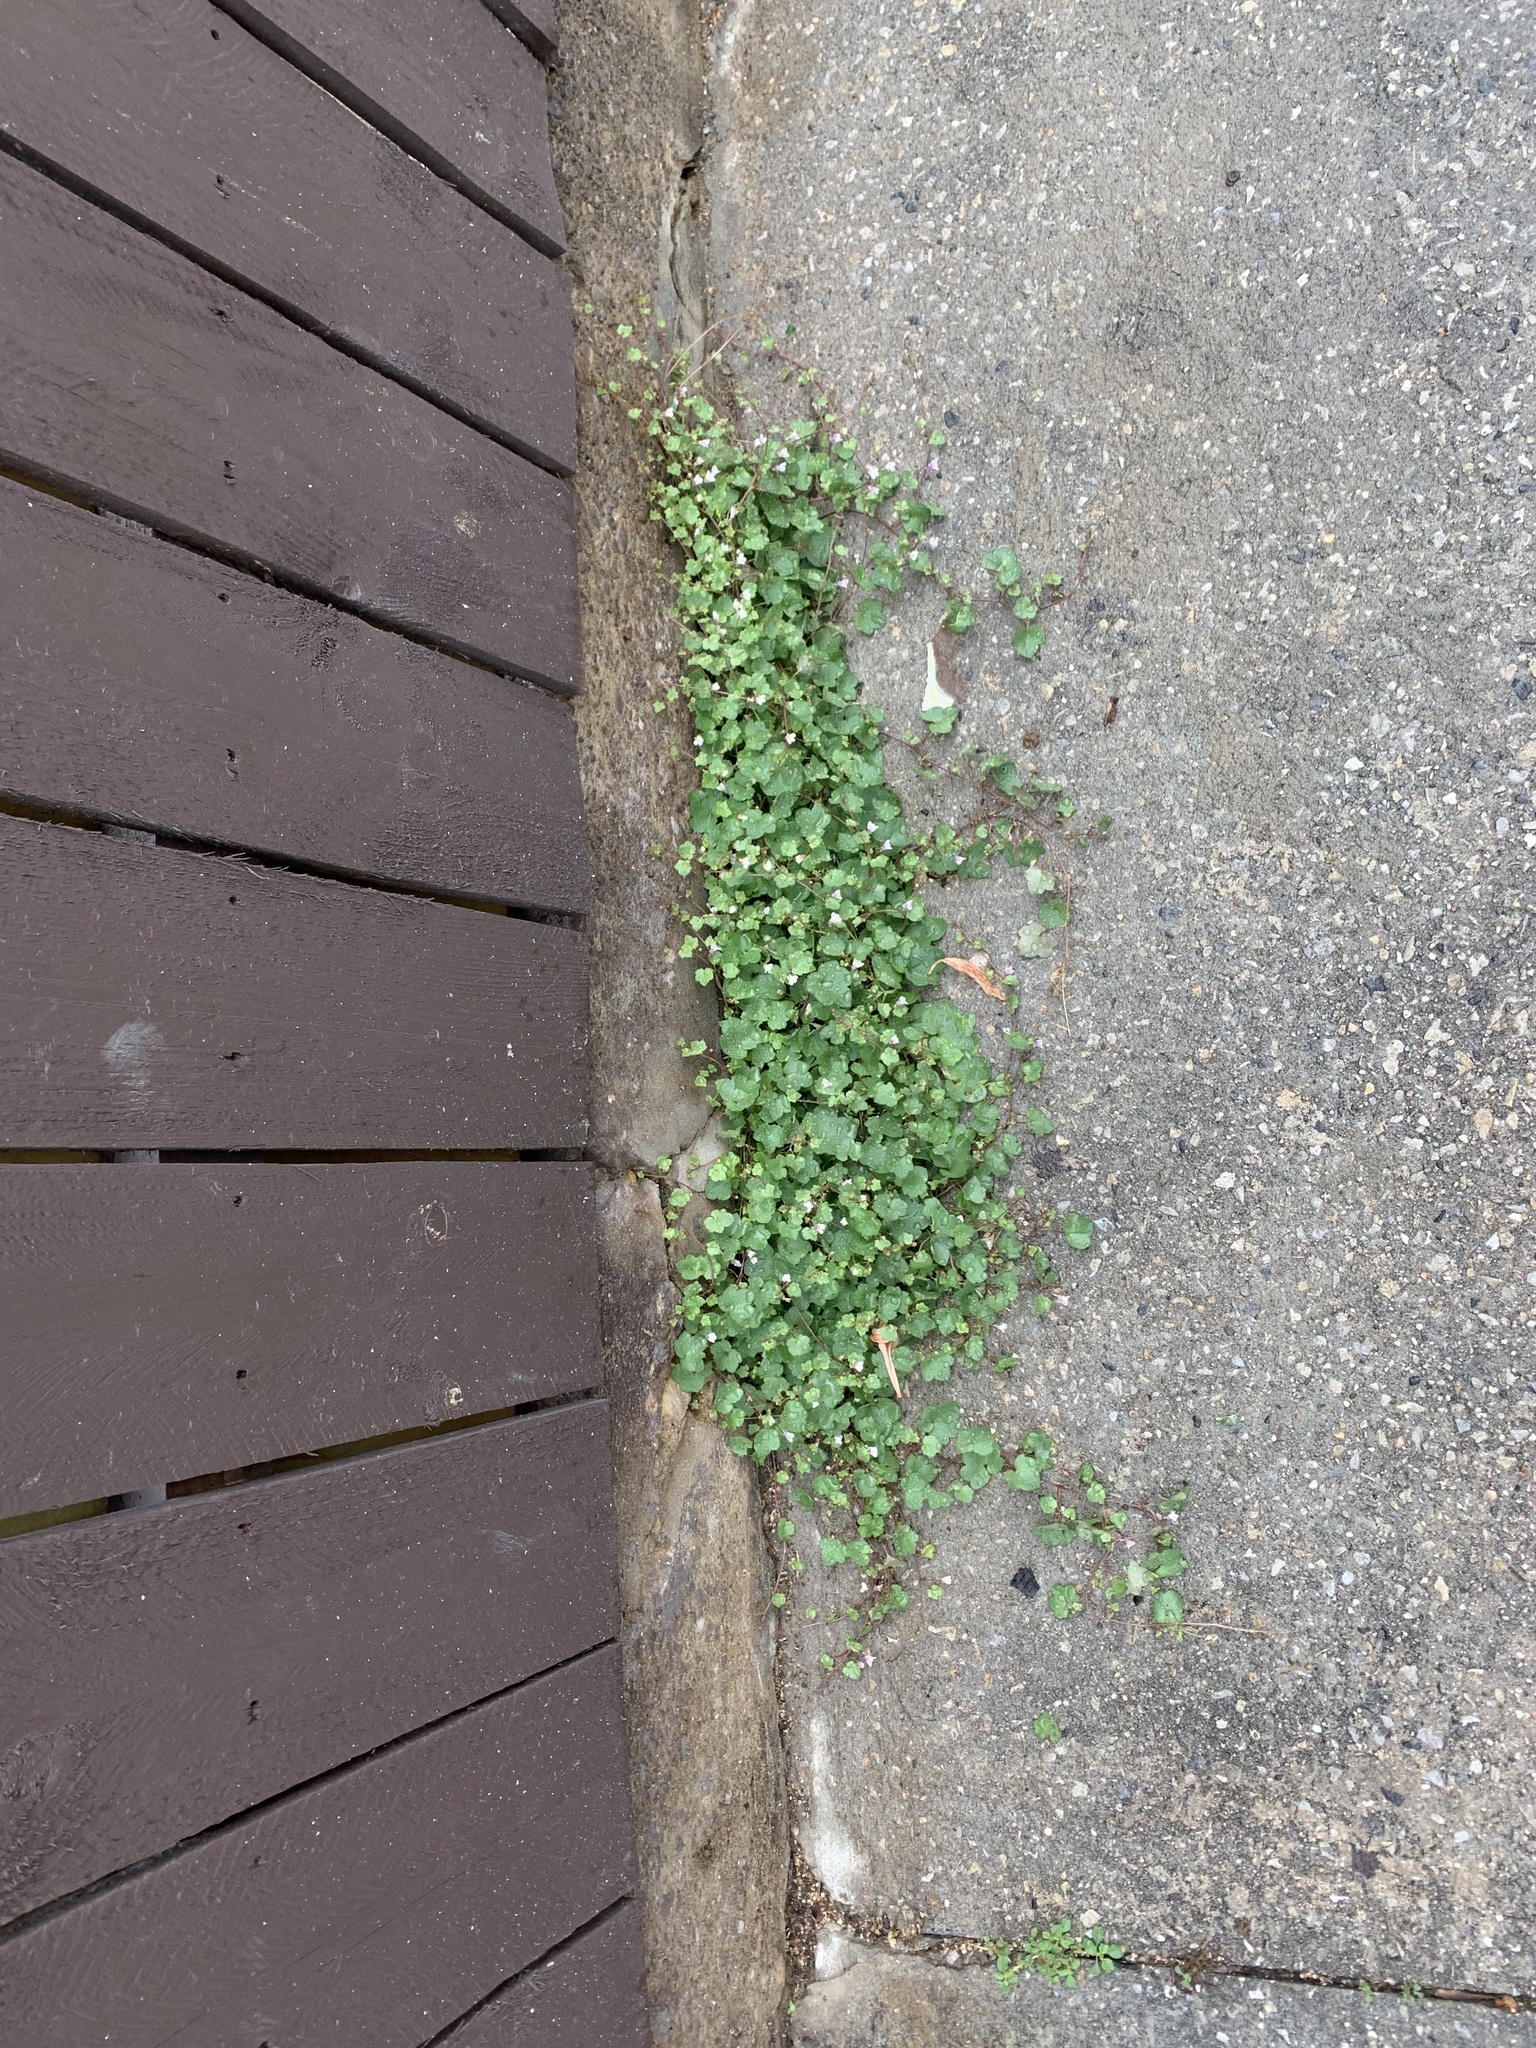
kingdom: Plantae
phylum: Tracheophyta
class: Magnoliopsida
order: Lamiales
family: Plantaginaceae
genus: Cymbalaria
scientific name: Cymbalaria muralis
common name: Ivy-leaved toadflax
